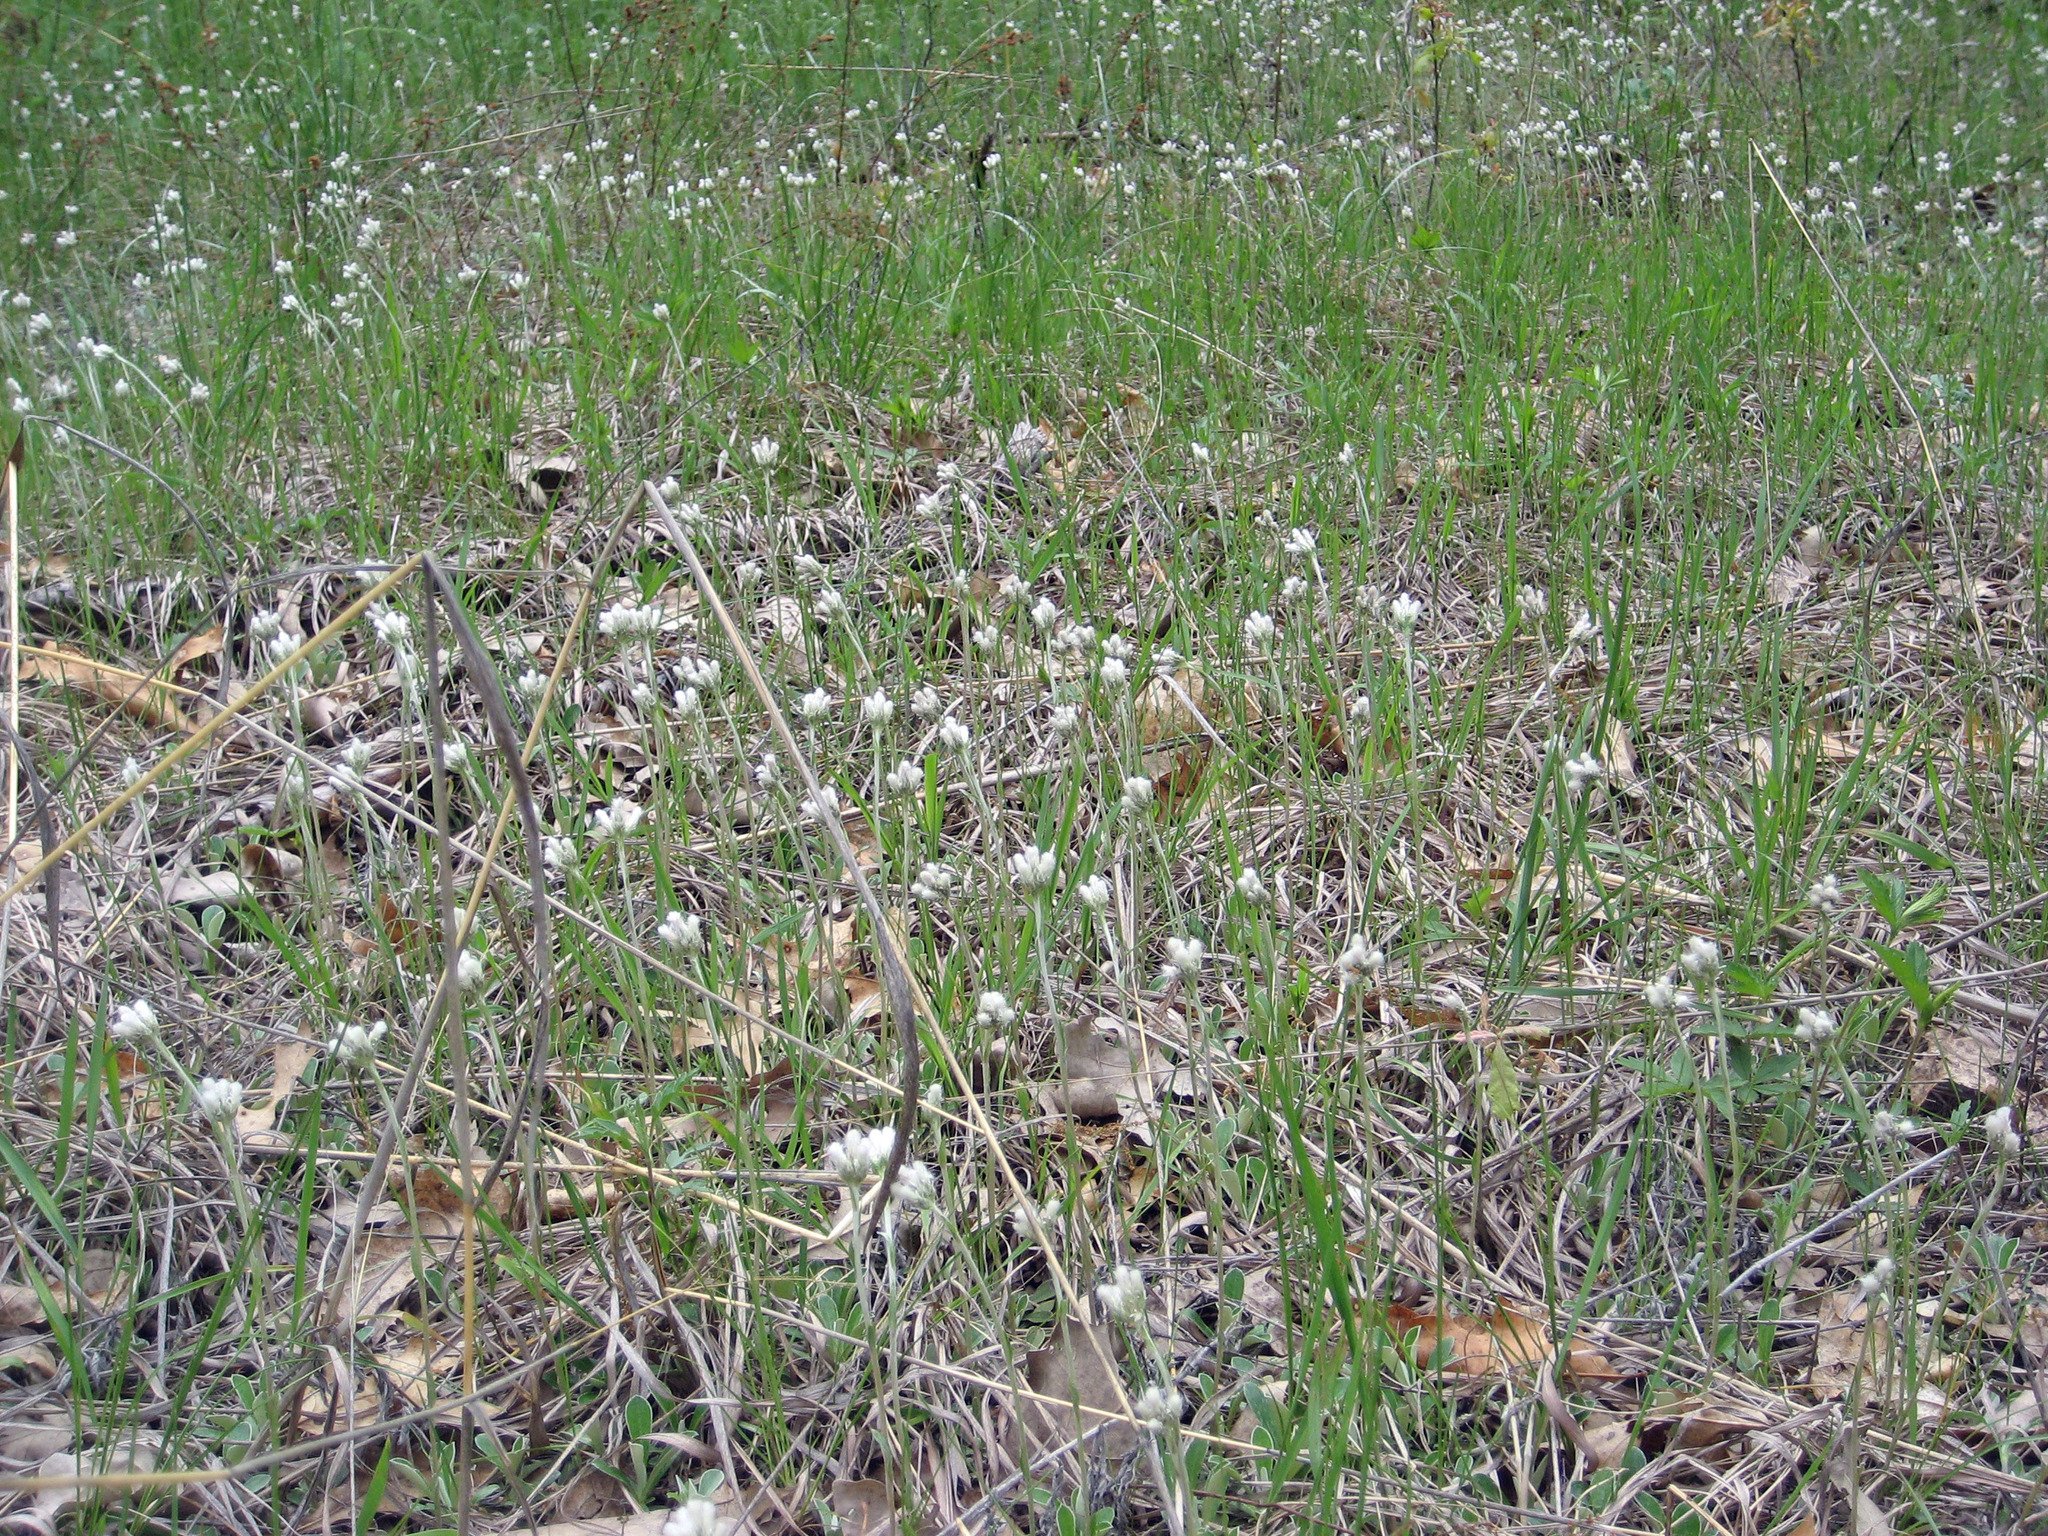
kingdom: Plantae
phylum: Tracheophyta
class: Magnoliopsida
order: Asterales
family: Asteraceae
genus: Antennaria
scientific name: Antennaria
